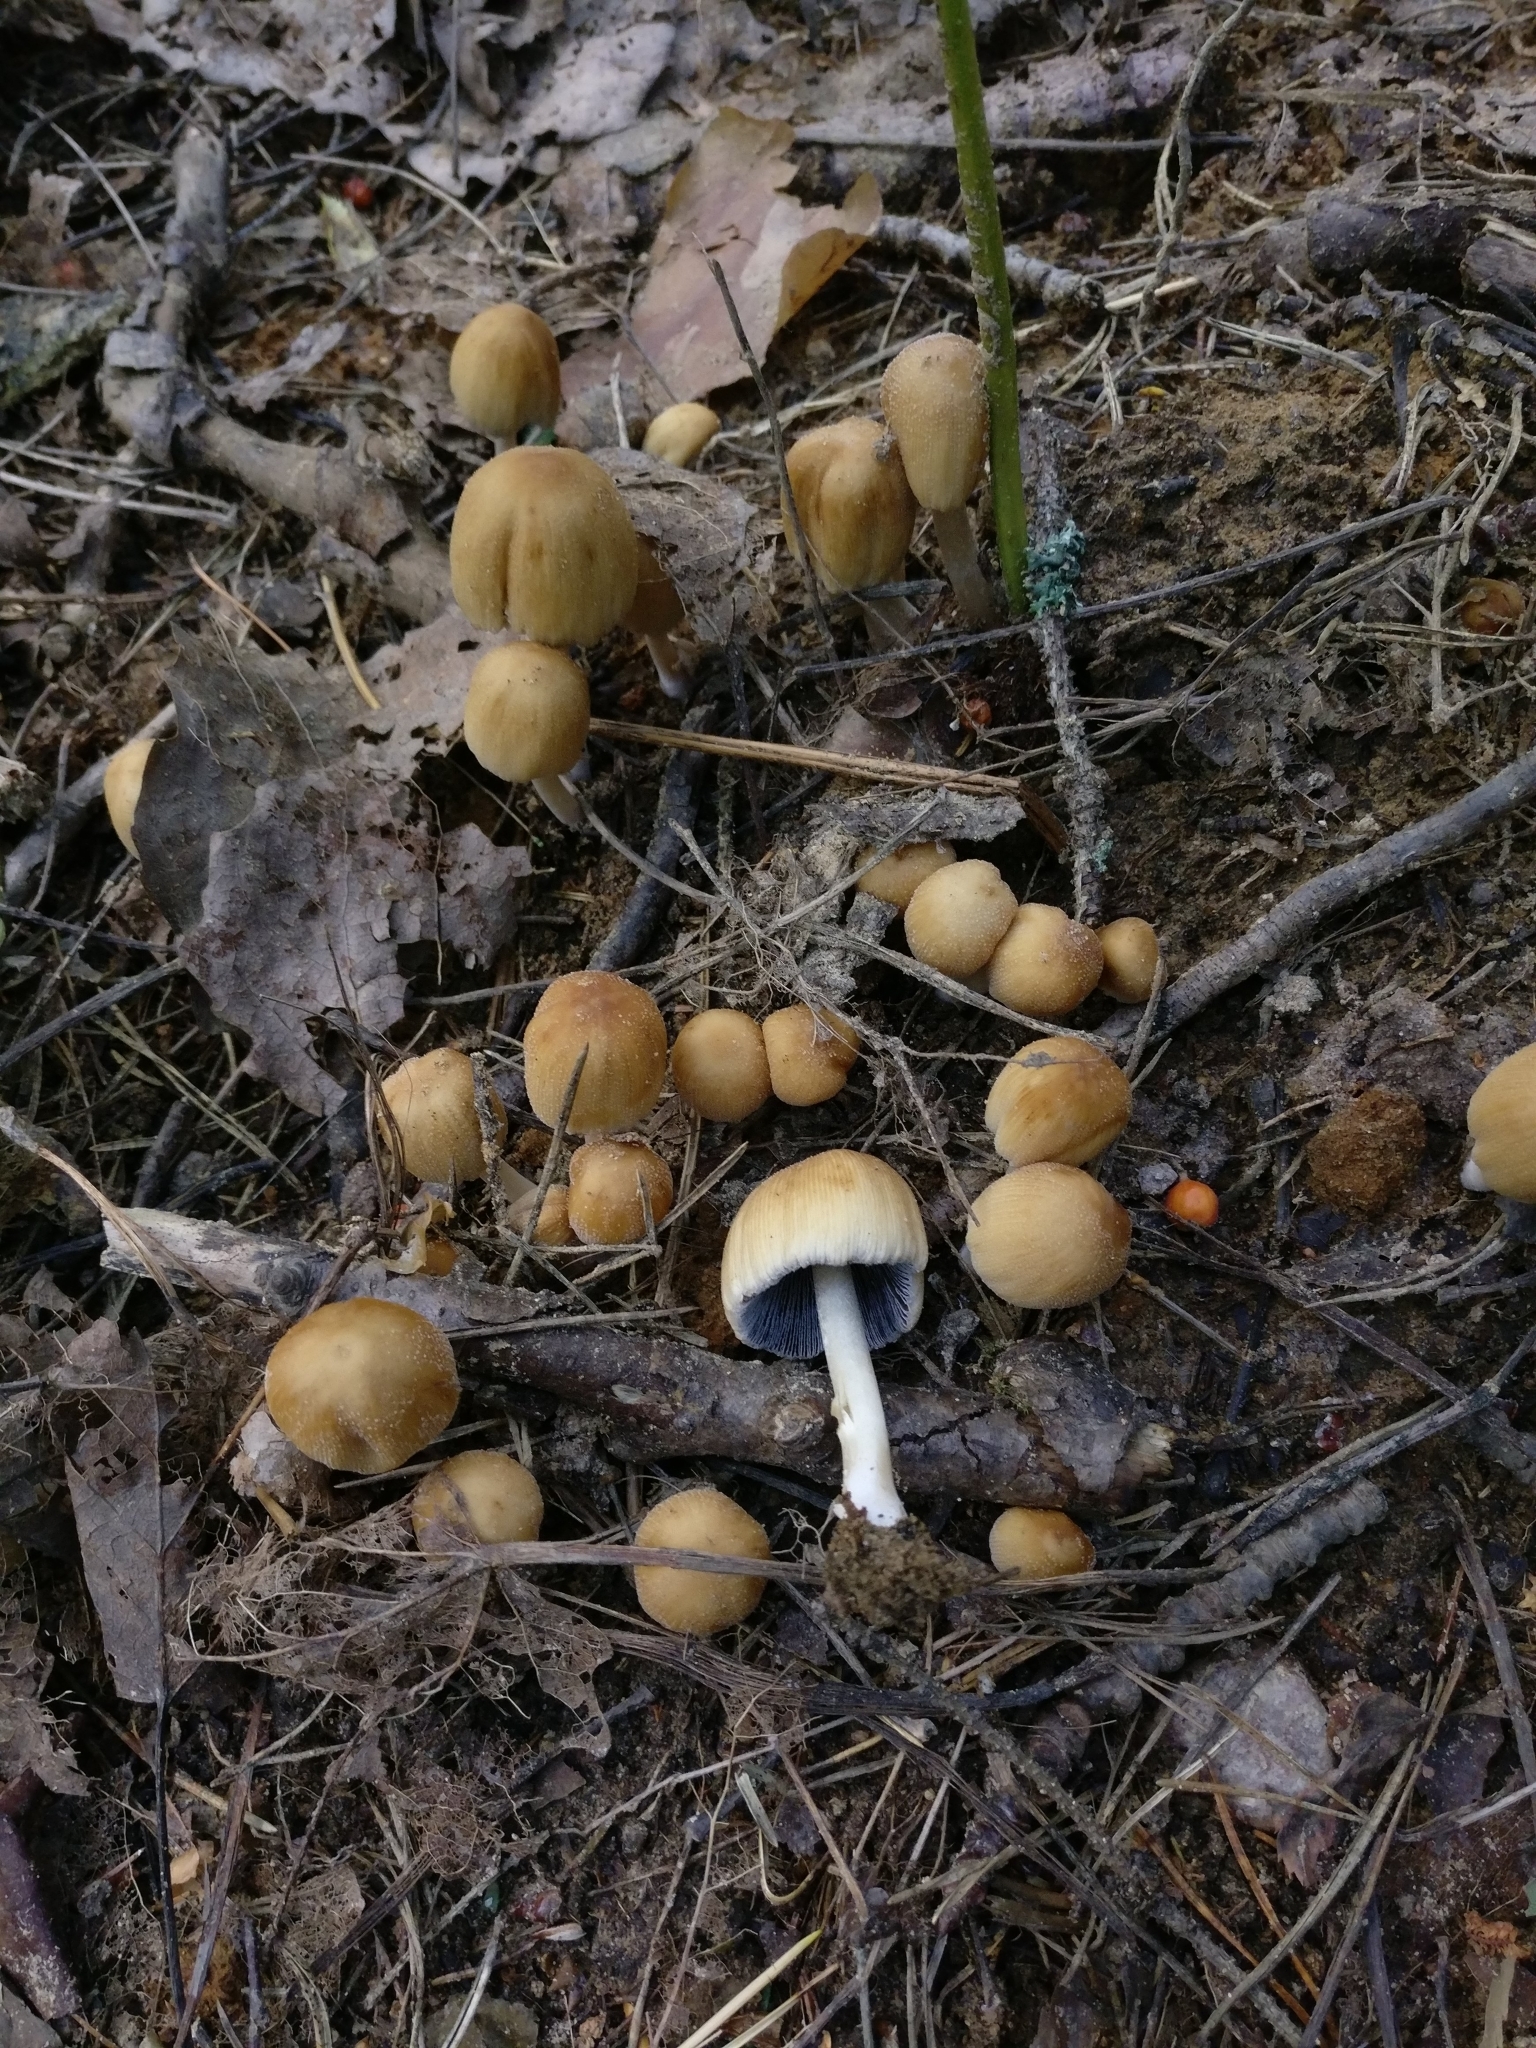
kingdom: Fungi
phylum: Basidiomycota
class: Agaricomycetes
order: Agaricales
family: Psathyrellaceae
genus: Coprinellus
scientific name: Coprinellus micaceus
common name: Glistening ink-cap
